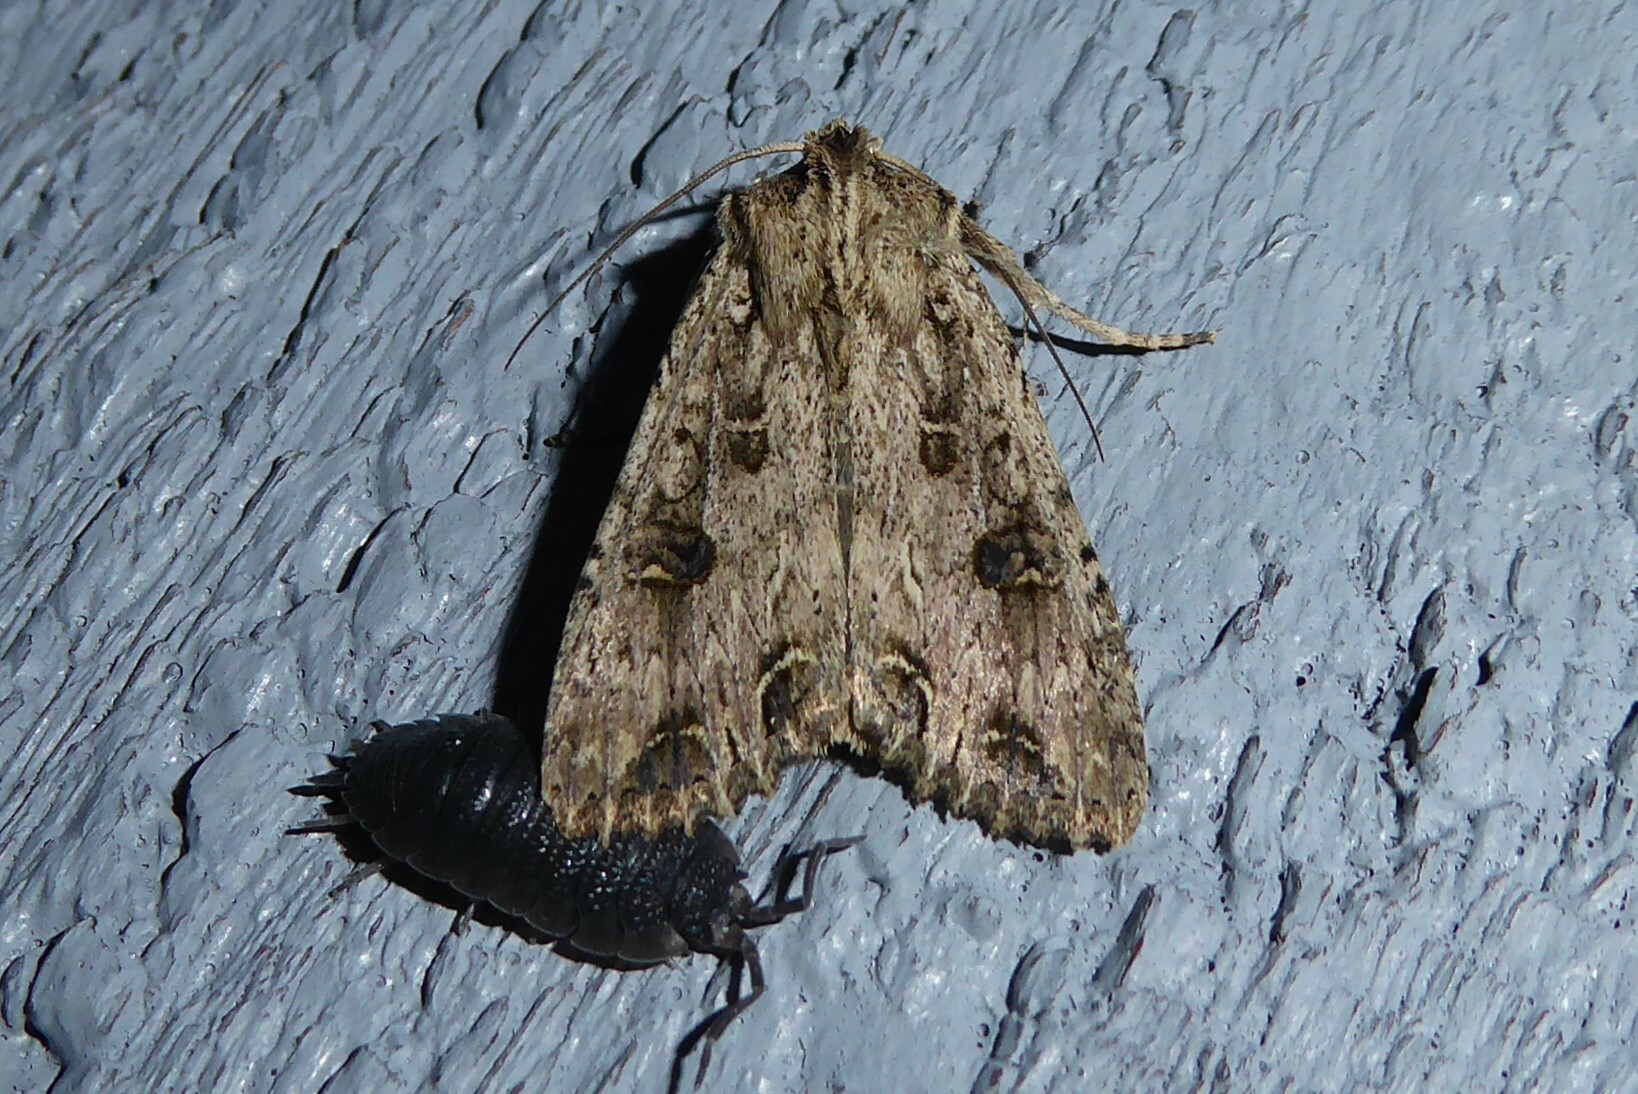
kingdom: Animalia
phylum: Arthropoda
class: Insecta
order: Lepidoptera
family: Noctuidae
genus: Ichneutica
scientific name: Ichneutica lignana
